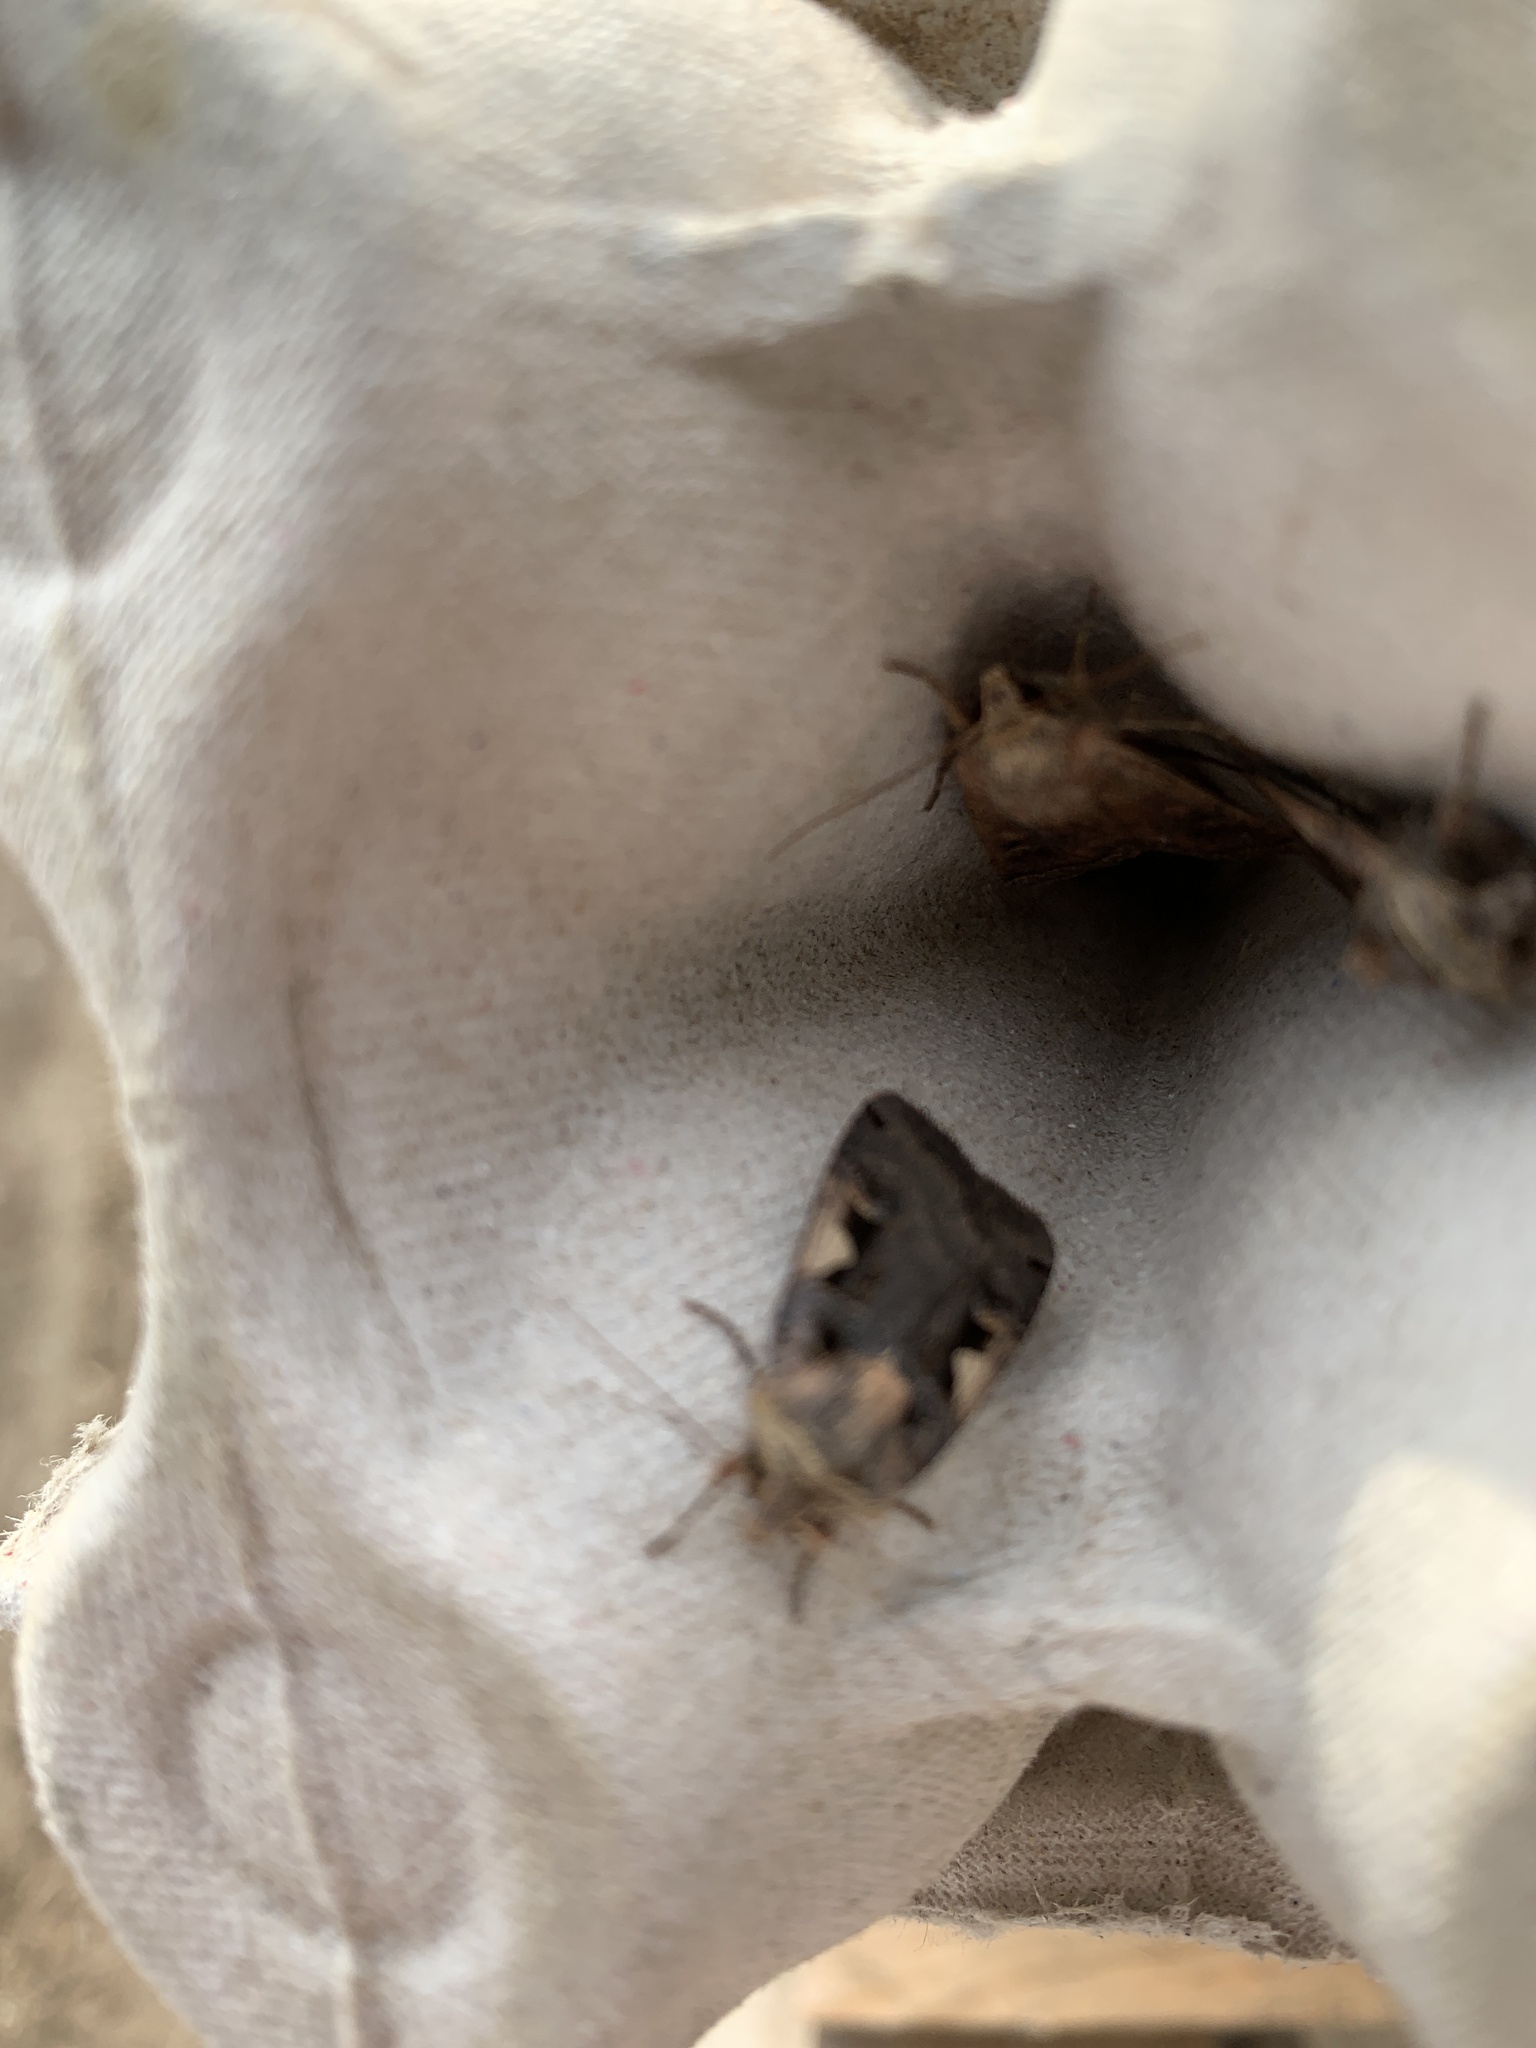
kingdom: Animalia
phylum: Arthropoda
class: Insecta
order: Lepidoptera
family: Noctuidae
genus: Xestia
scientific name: Xestia c-nigrum
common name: Setaceous hebrew character
